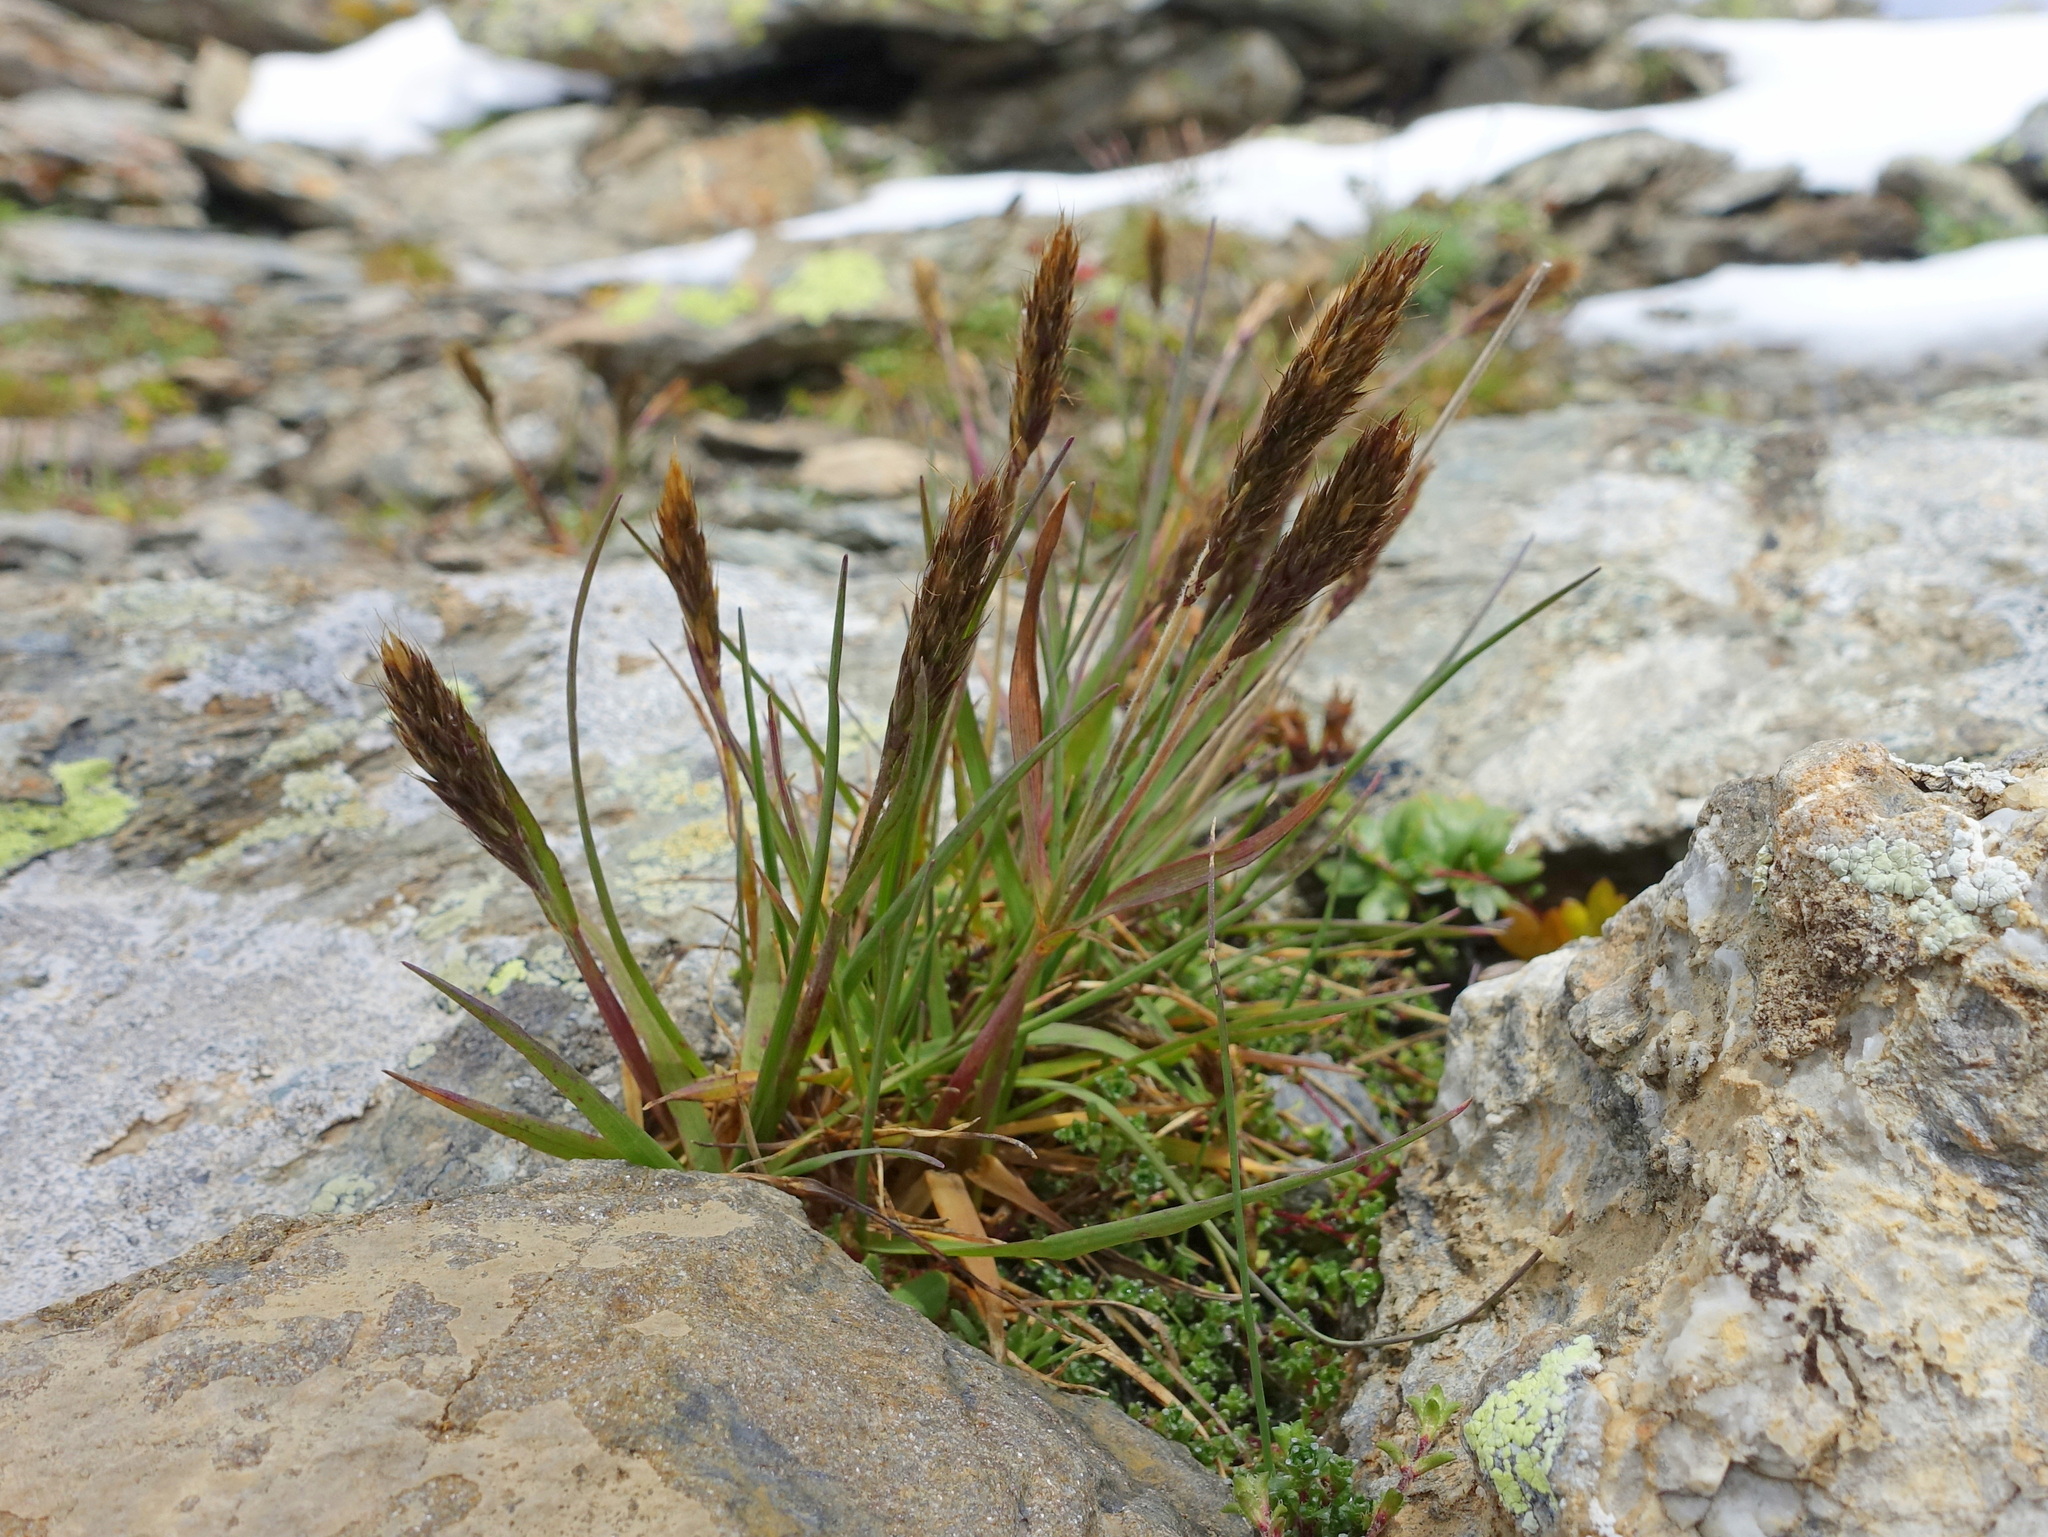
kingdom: Plantae
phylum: Tracheophyta
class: Liliopsida
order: Poales
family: Poaceae
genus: Koeleria
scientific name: Koeleria spicata
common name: Mountain trisetum
